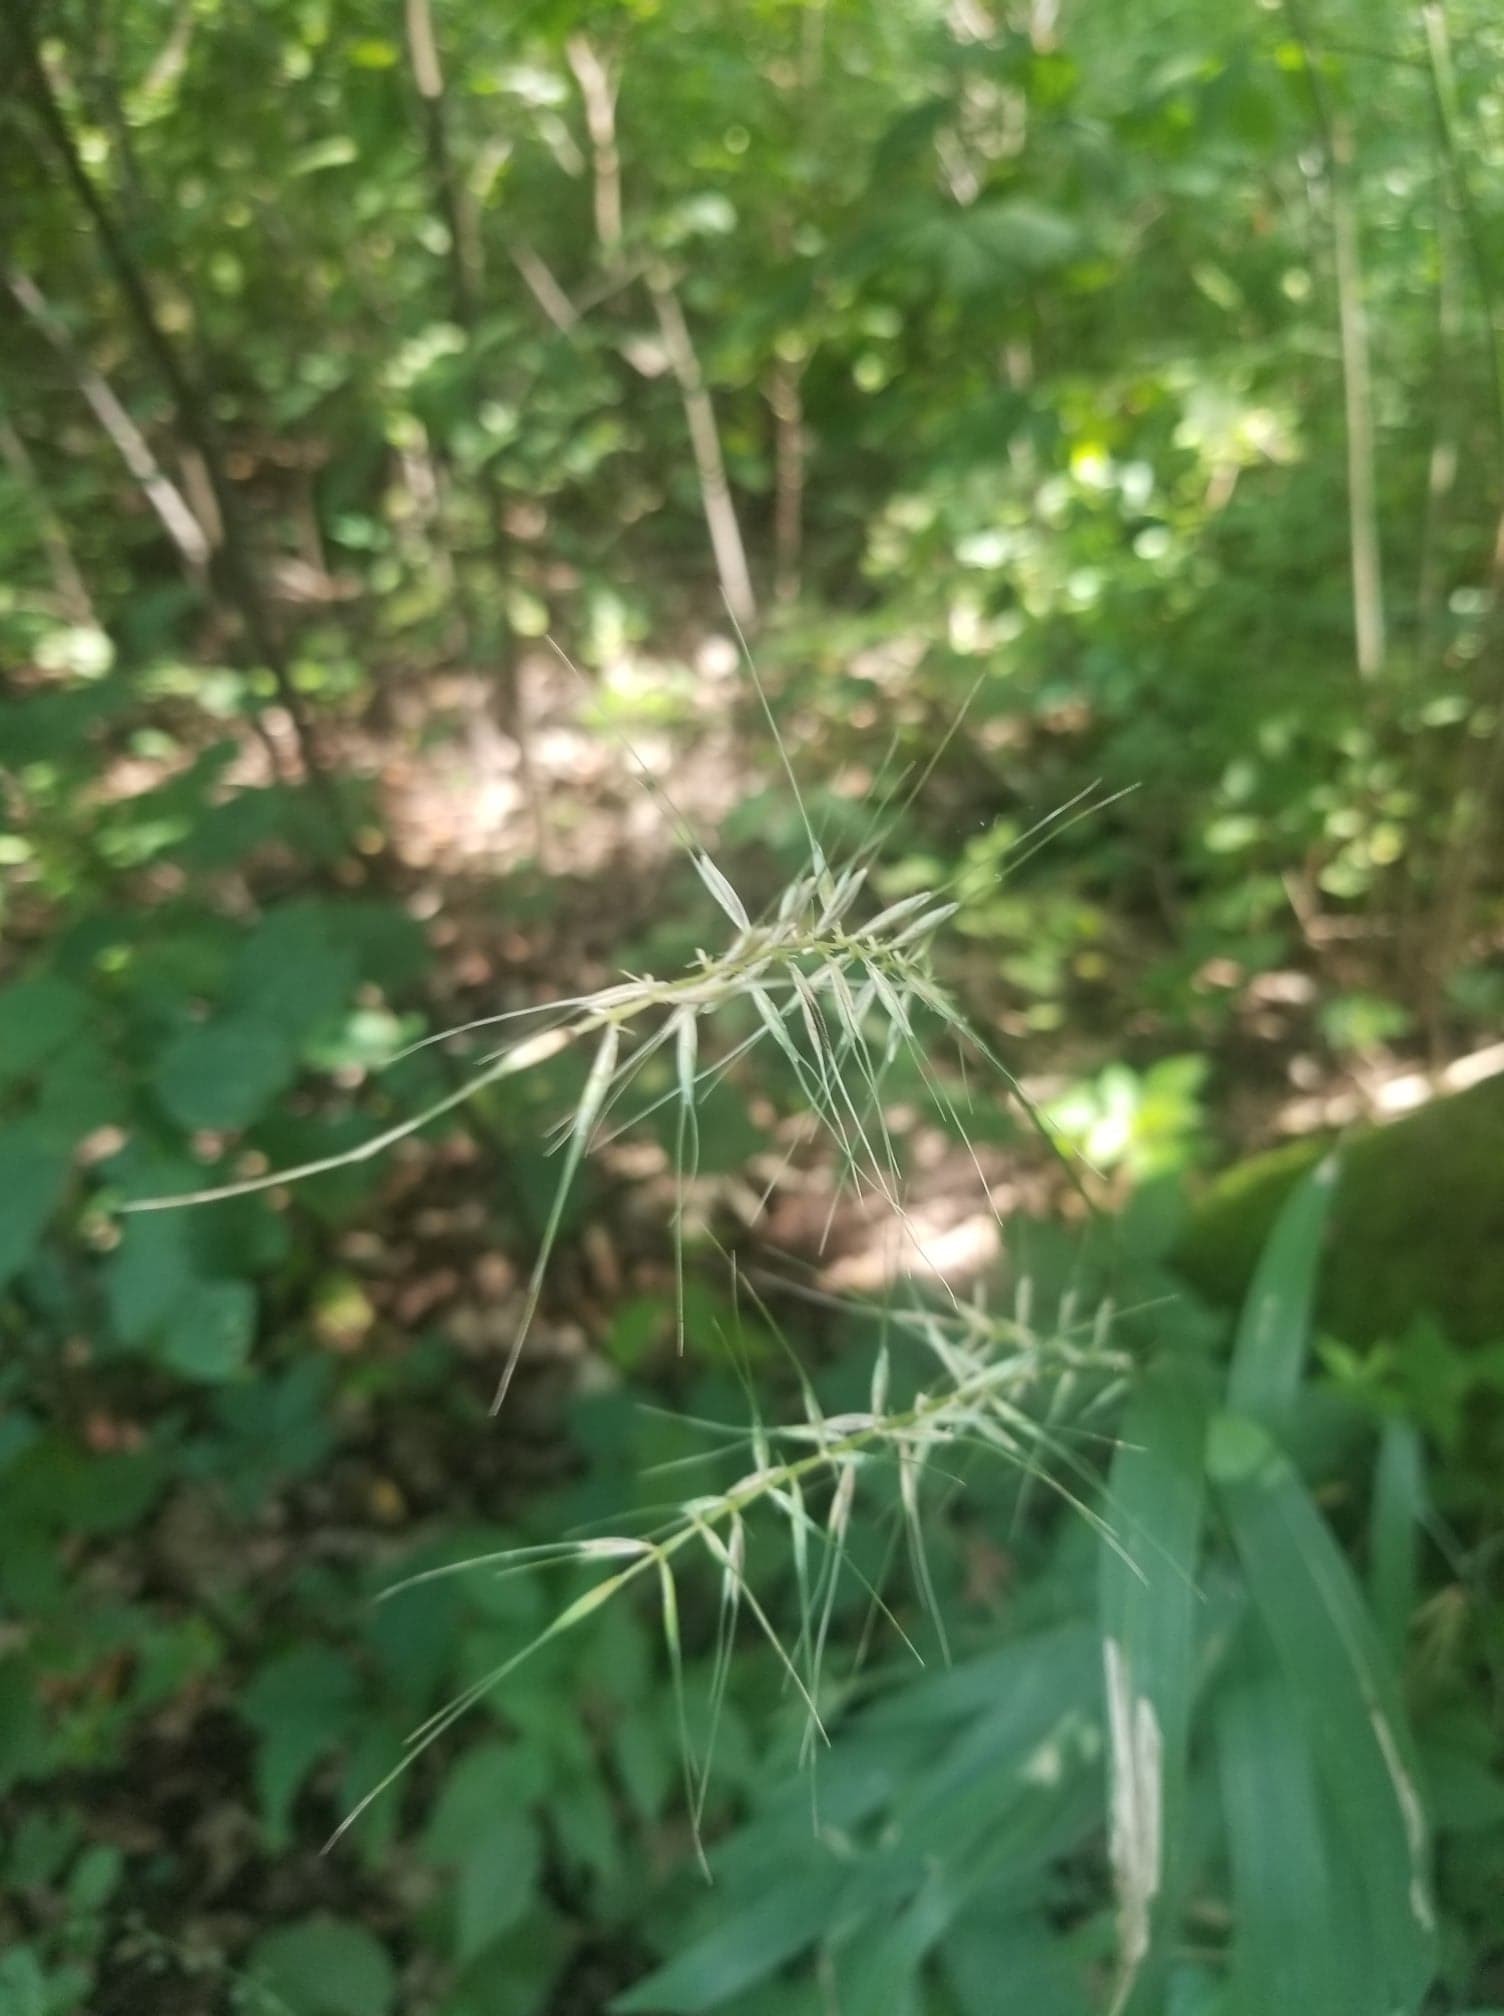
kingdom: Plantae
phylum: Tracheophyta
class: Liliopsida
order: Poales
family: Poaceae
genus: Elymus
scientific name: Elymus hystrix
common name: Bottlebrush grass
